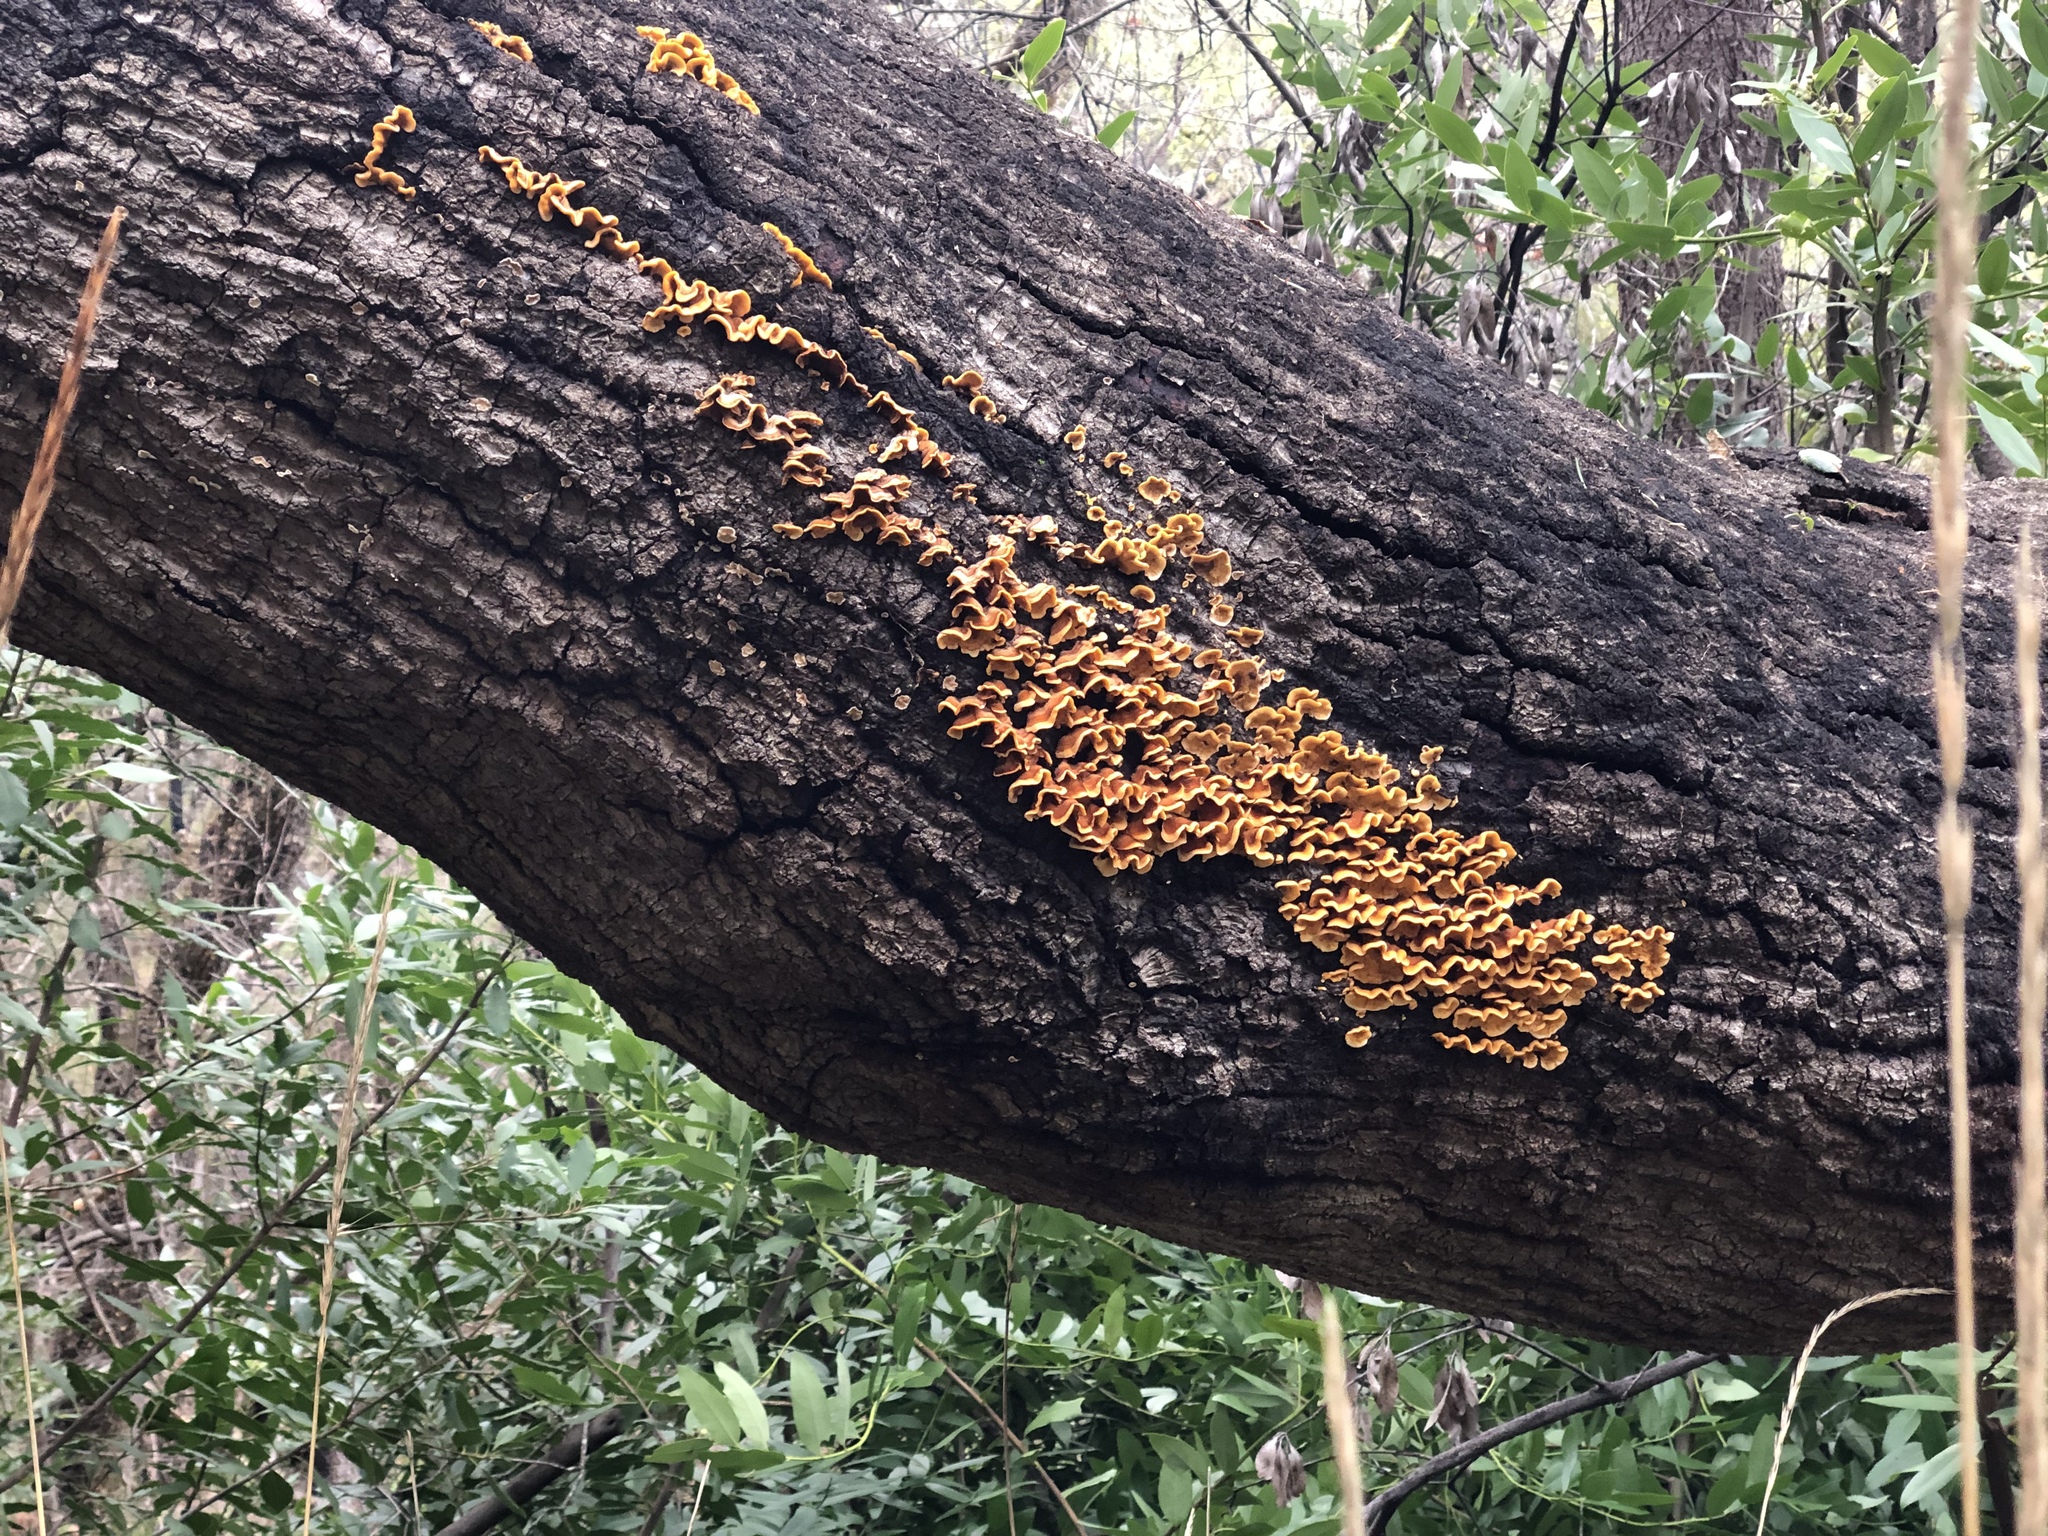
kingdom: Fungi
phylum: Basidiomycota
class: Agaricomycetes
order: Russulales
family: Stereaceae
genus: Stereum
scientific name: Stereum hirsutum
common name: Hairy curtain crust
